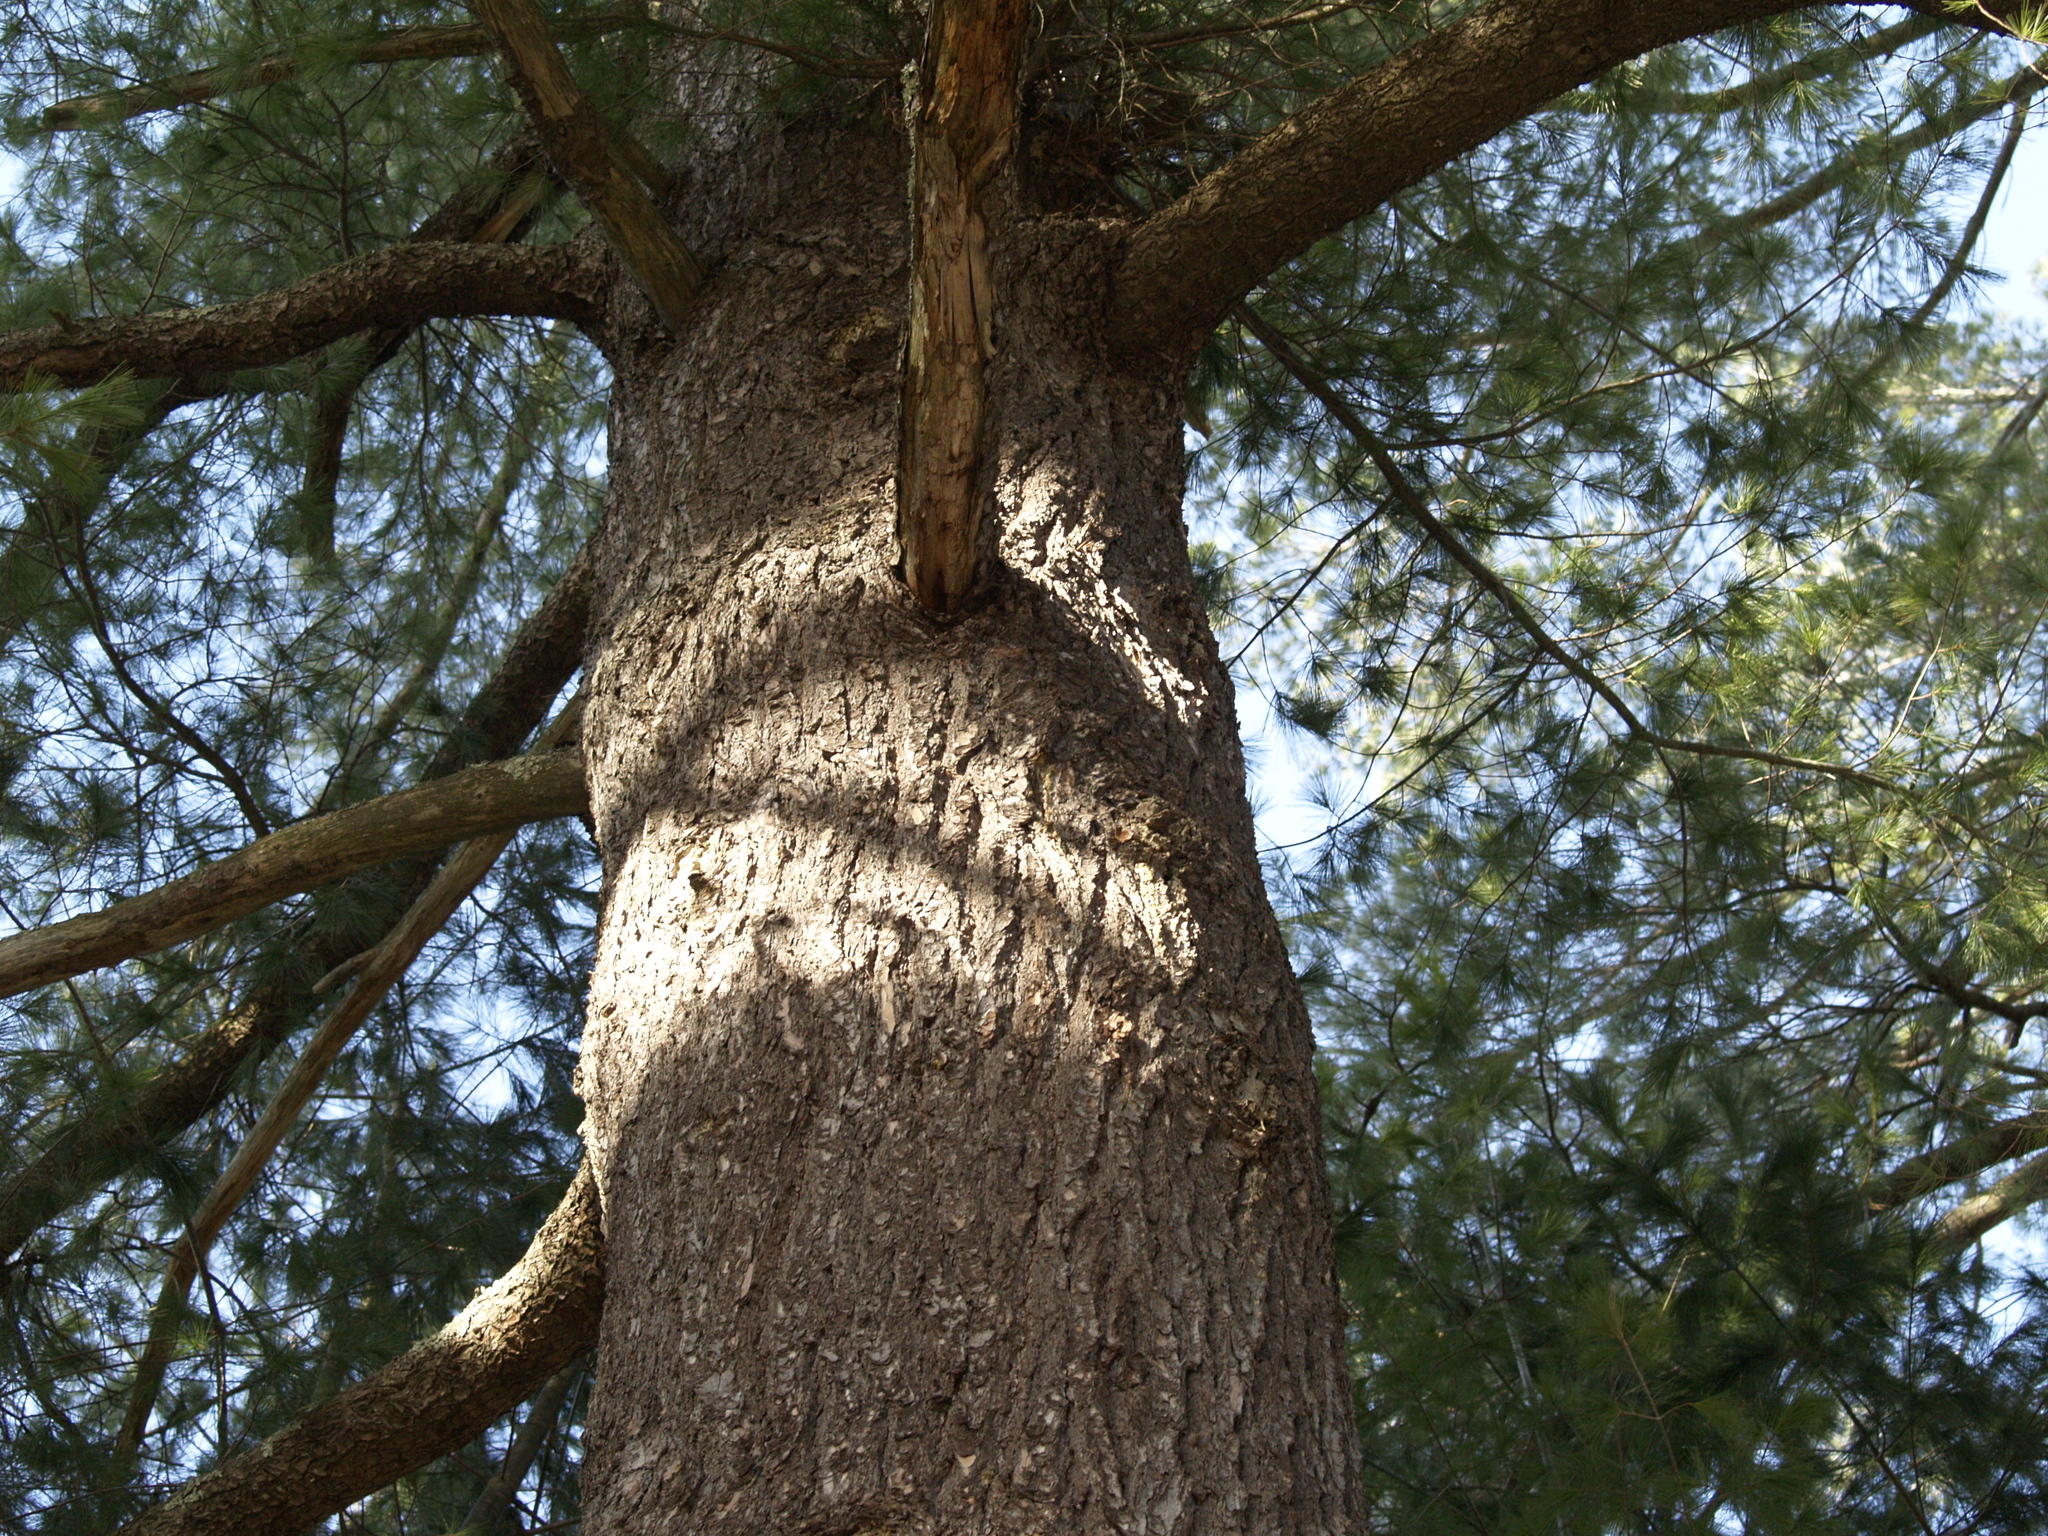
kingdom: Plantae
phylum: Tracheophyta
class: Pinopsida
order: Pinales
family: Pinaceae
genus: Pinus
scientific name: Pinus strobus
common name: Weymouth pine
